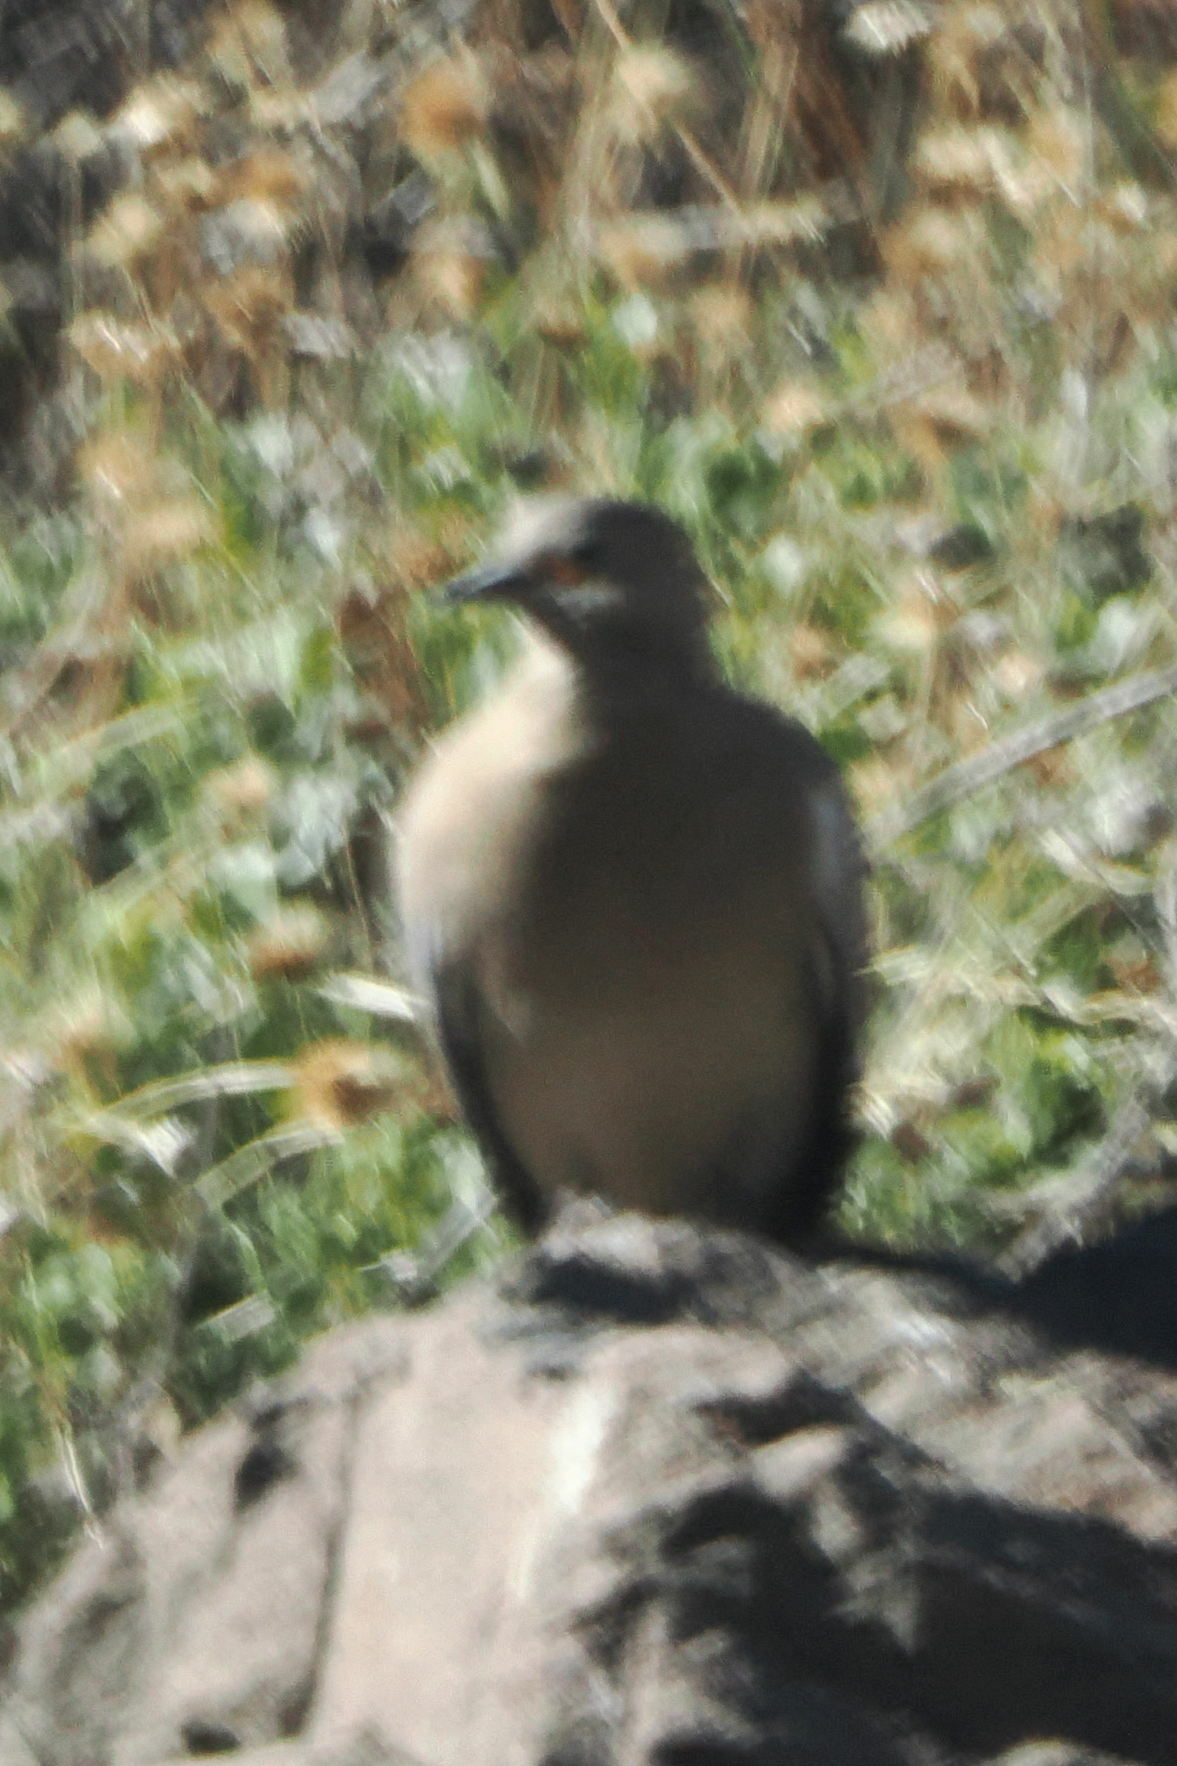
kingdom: Animalia
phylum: Chordata
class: Aves
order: Columbiformes
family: Columbidae
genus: Metriopelia
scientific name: Metriopelia melanoptera
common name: Black-winged ground dove
